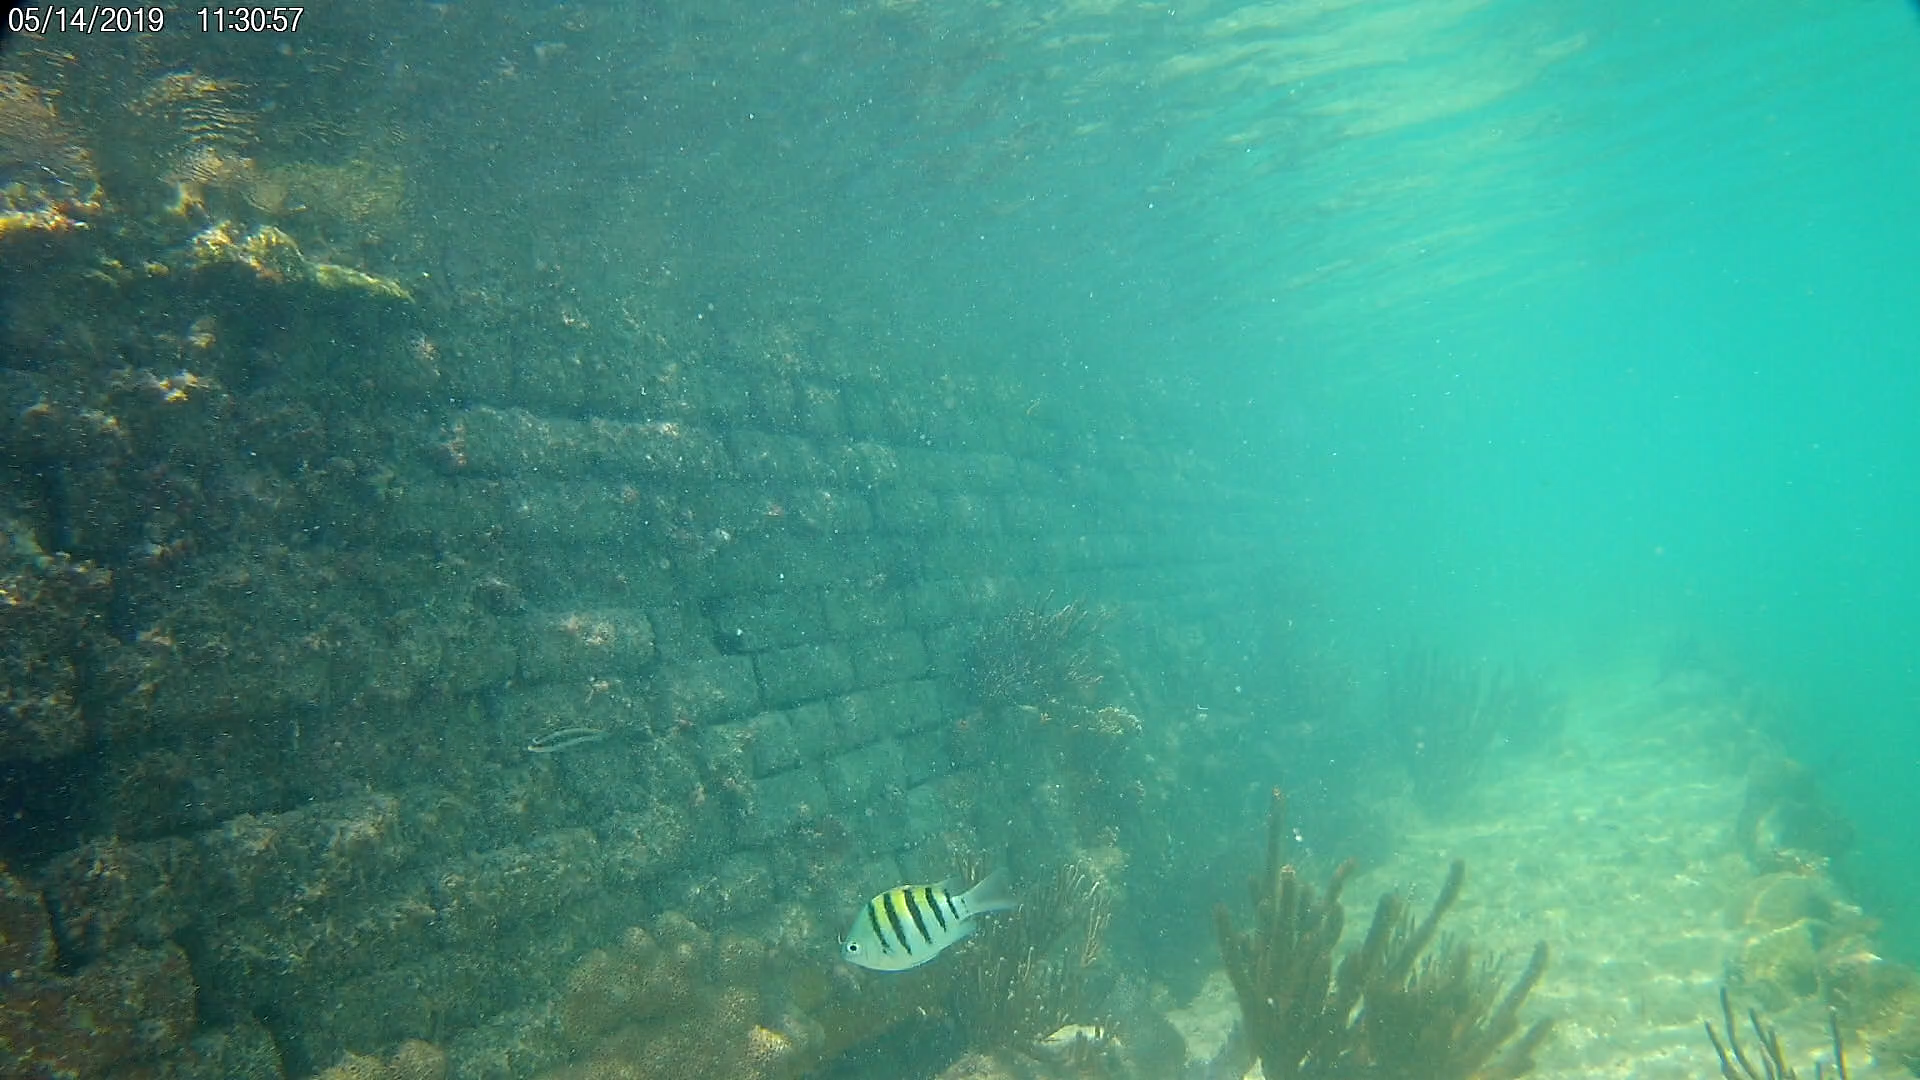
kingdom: Animalia
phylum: Chordata
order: Perciformes
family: Pomacentridae
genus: Abudefduf
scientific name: Abudefduf saxatilis
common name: Sergeant major
